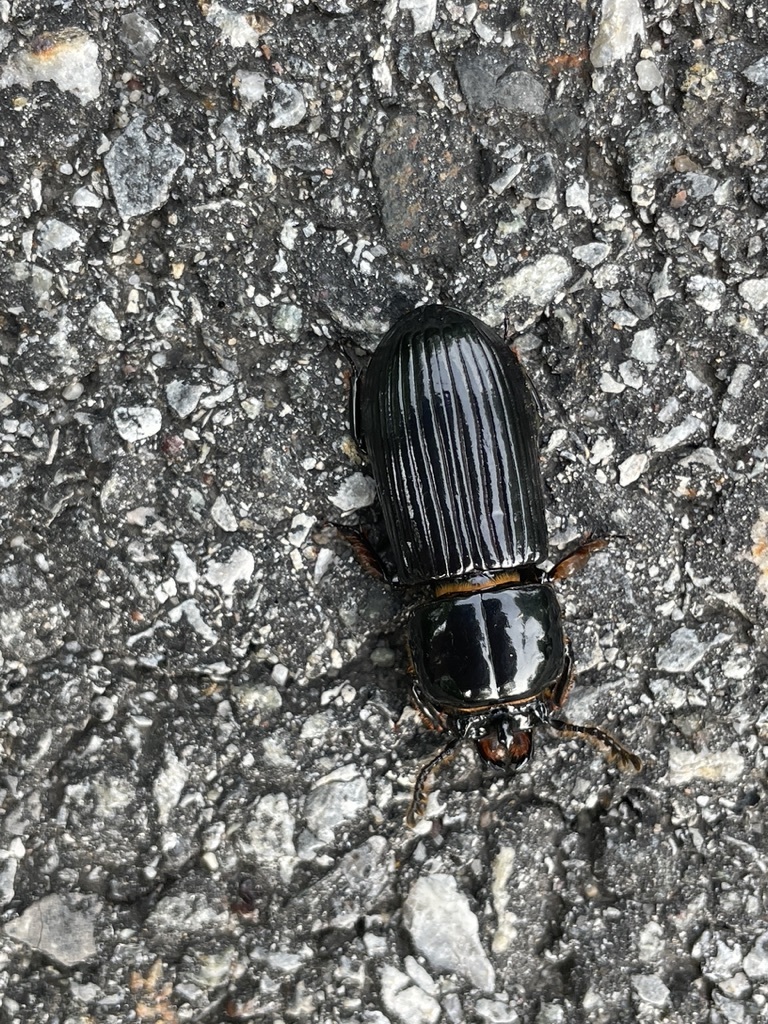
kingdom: Animalia
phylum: Arthropoda
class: Insecta
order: Coleoptera
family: Passalidae
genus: Odontotaenius
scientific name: Odontotaenius disjunctus
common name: Patent leather beetle
